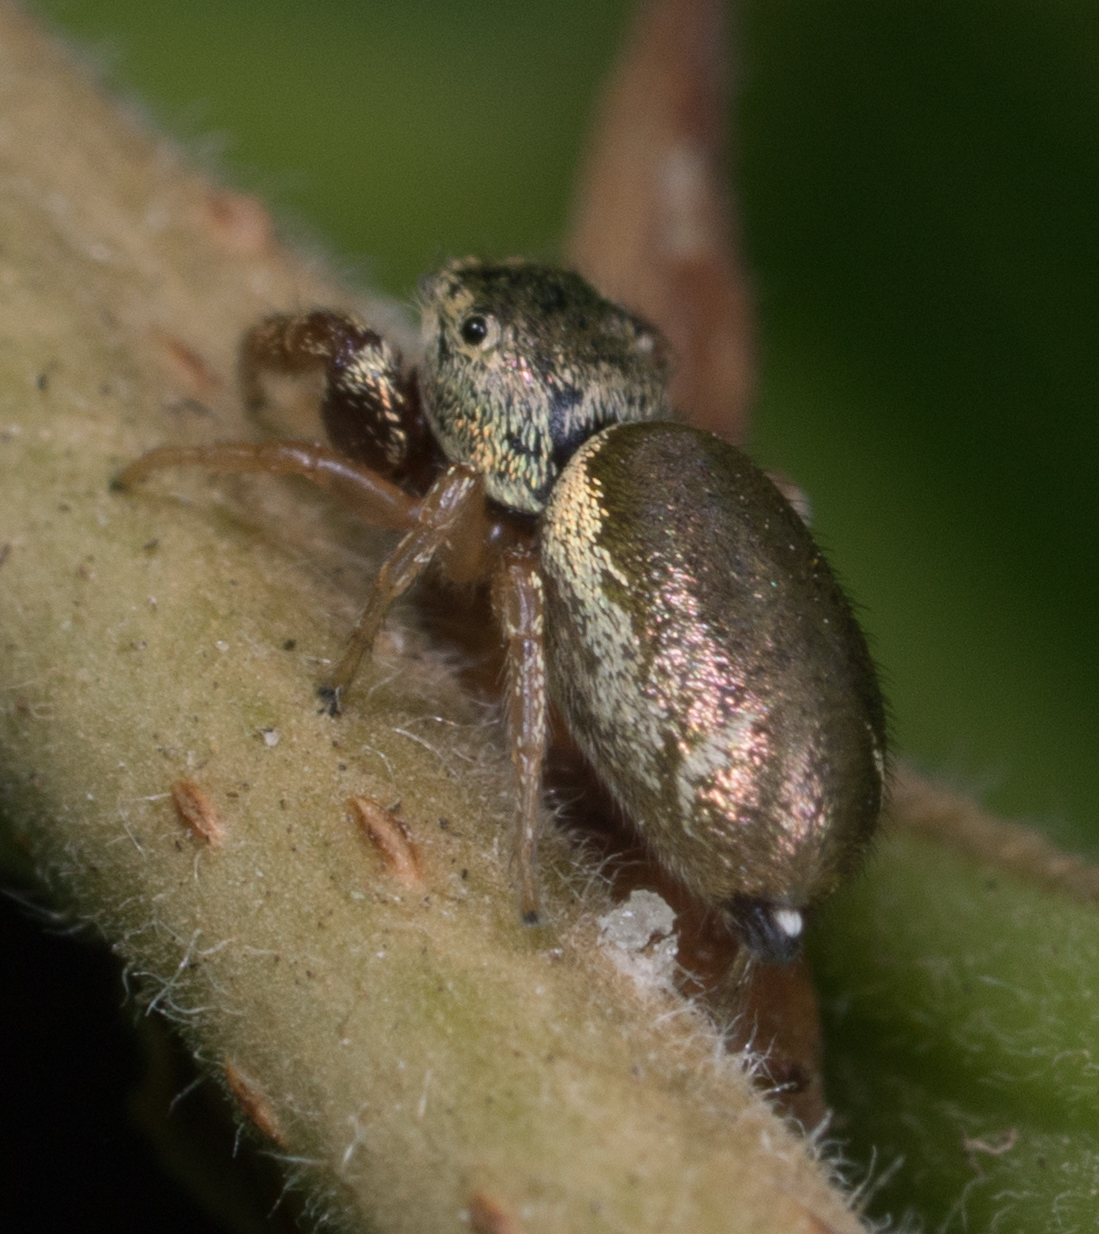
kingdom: Animalia
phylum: Arthropoda
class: Arachnida
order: Araneae
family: Salticidae
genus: Sassacus
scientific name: Sassacus vitis
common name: Jumping spiders
